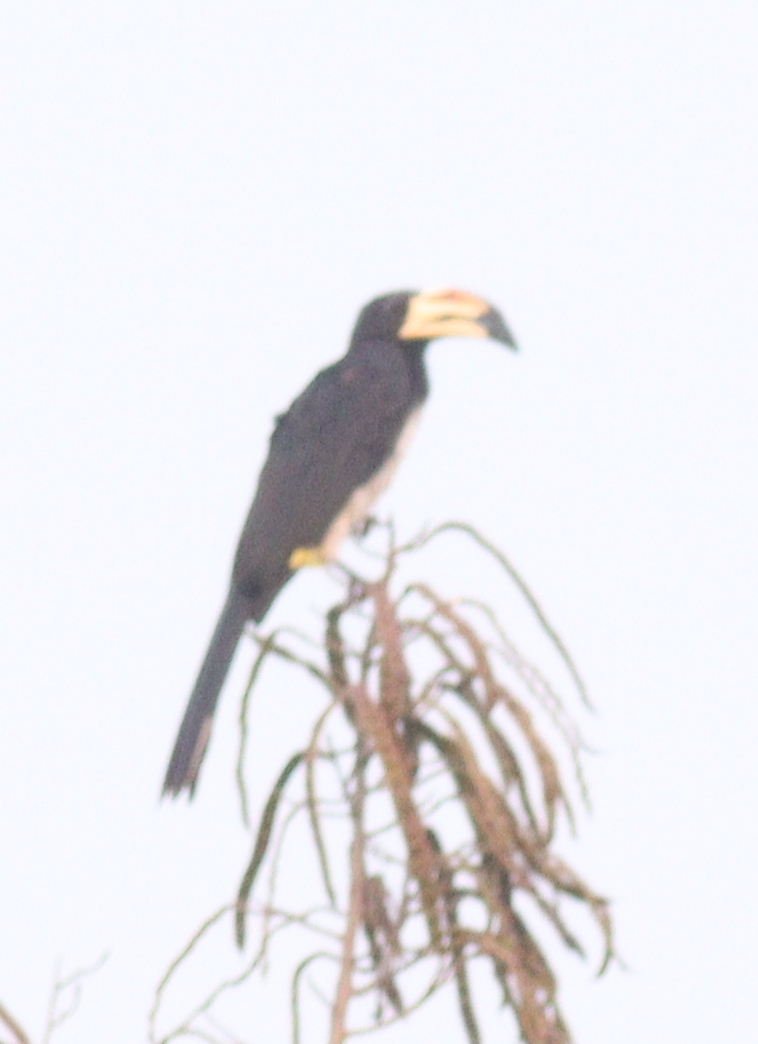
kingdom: Animalia
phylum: Chordata
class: Aves
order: Bucerotiformes
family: Bucerotidae
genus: Lophoceros
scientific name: Lophoceros fasciatus
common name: African pied hornbill
